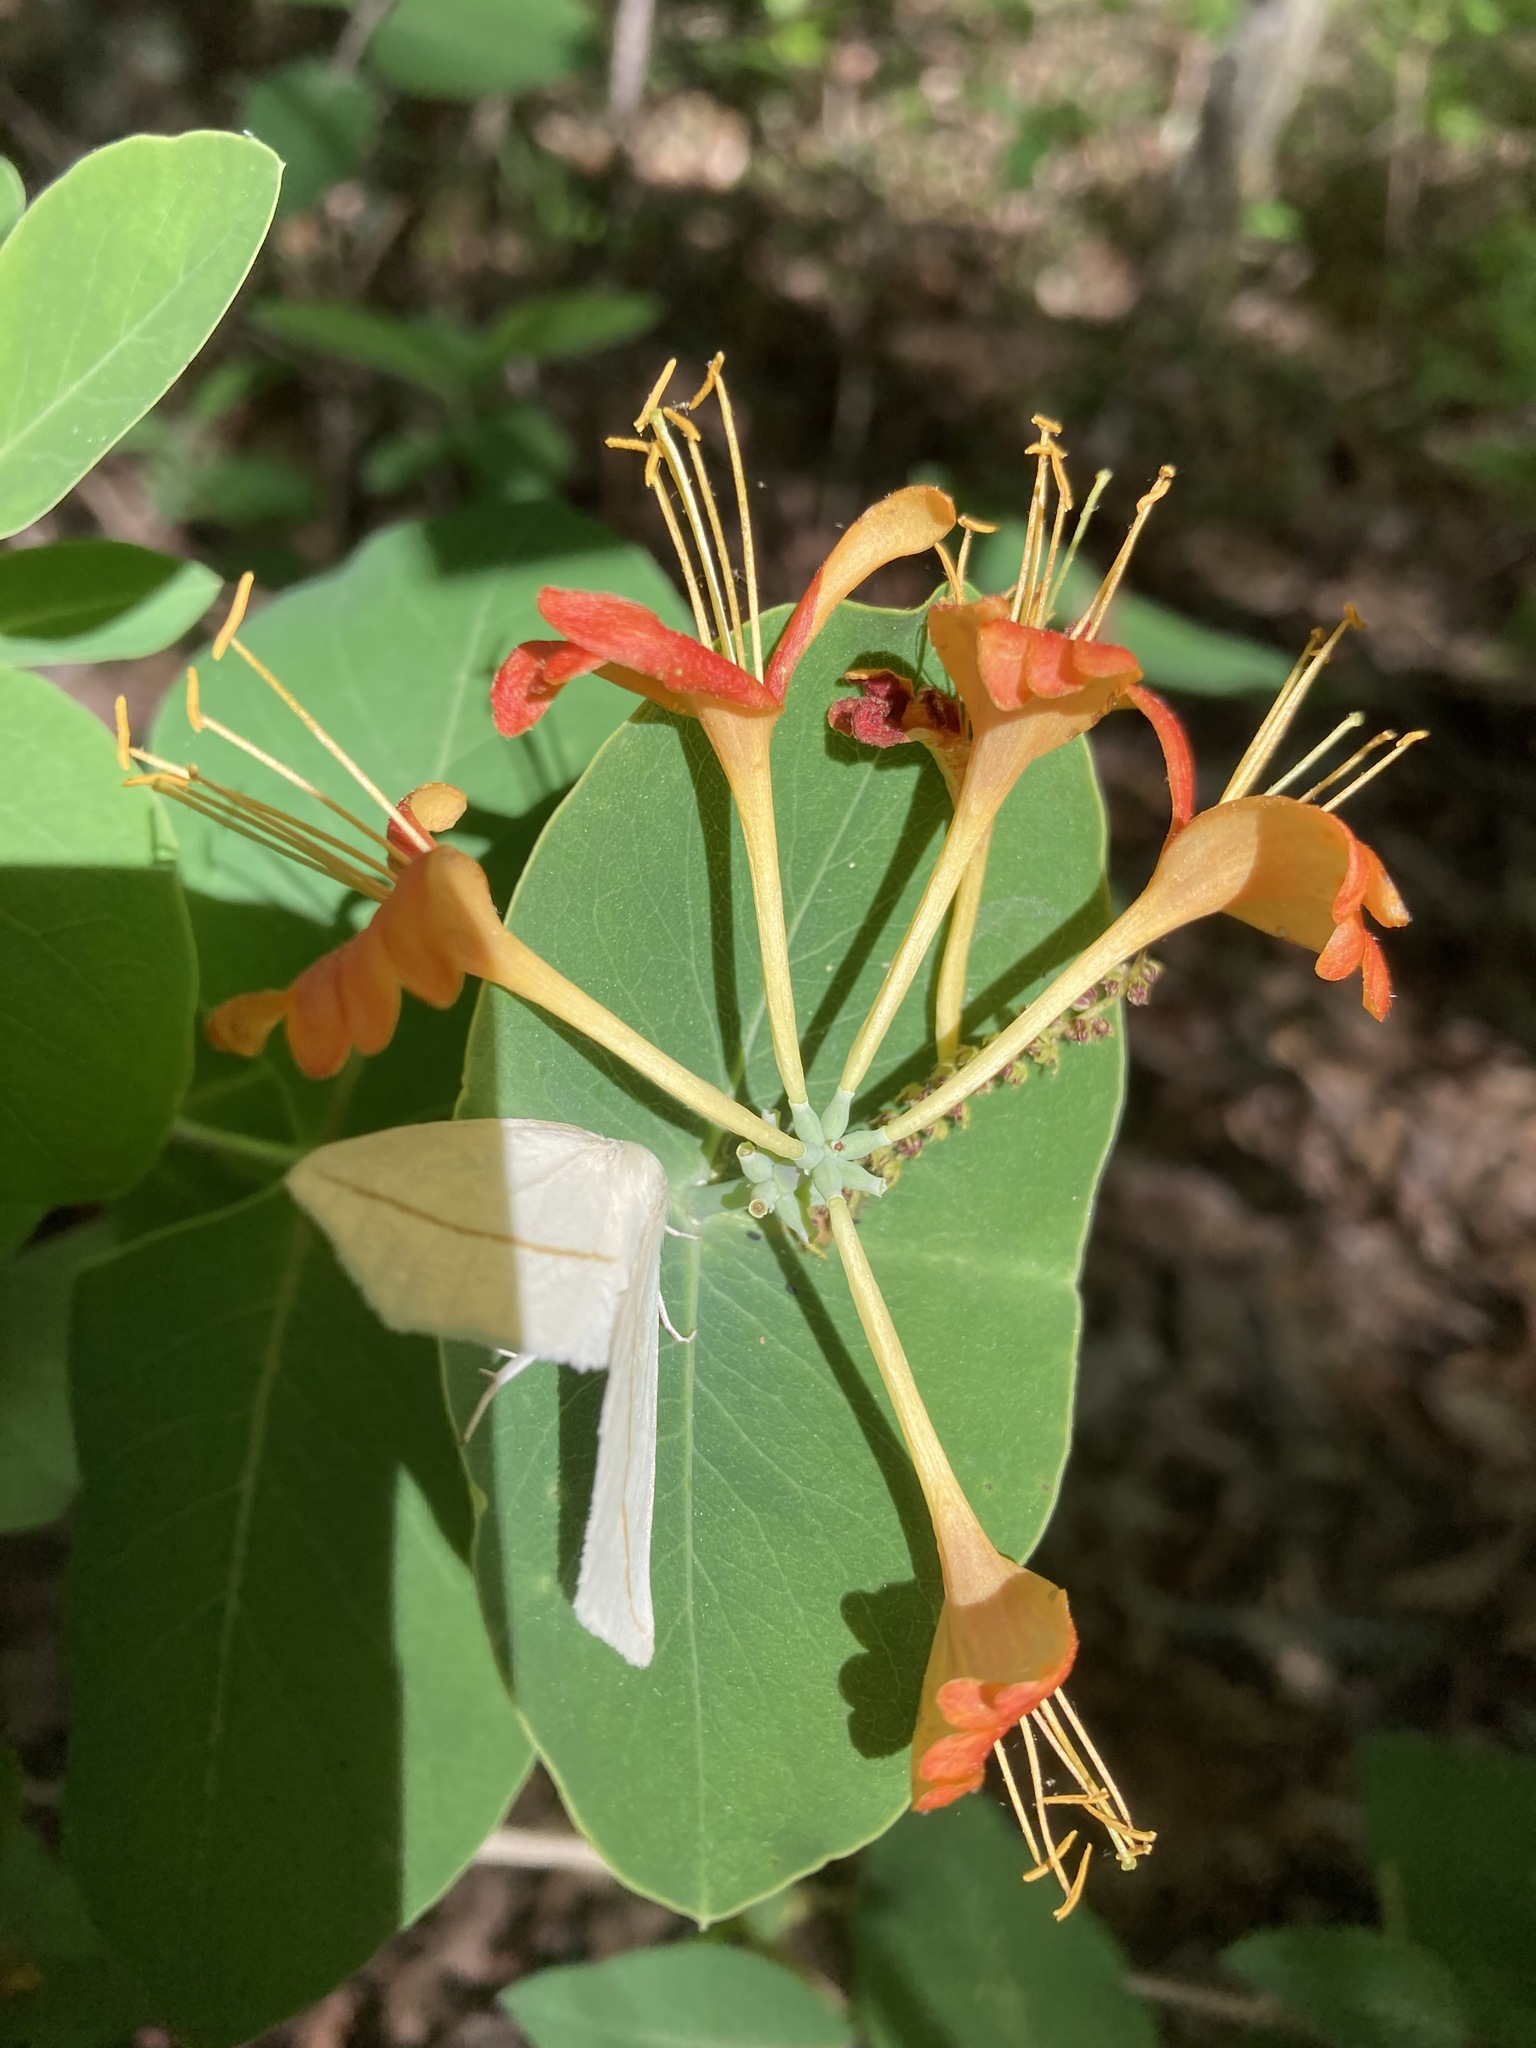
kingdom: Plantae
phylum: Tracheophyta
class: Magnoliopsida
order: Dipsacales
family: Caprifoliaceae
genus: Lonicera
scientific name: Lonicera flava
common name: Yellow honeysuckle
